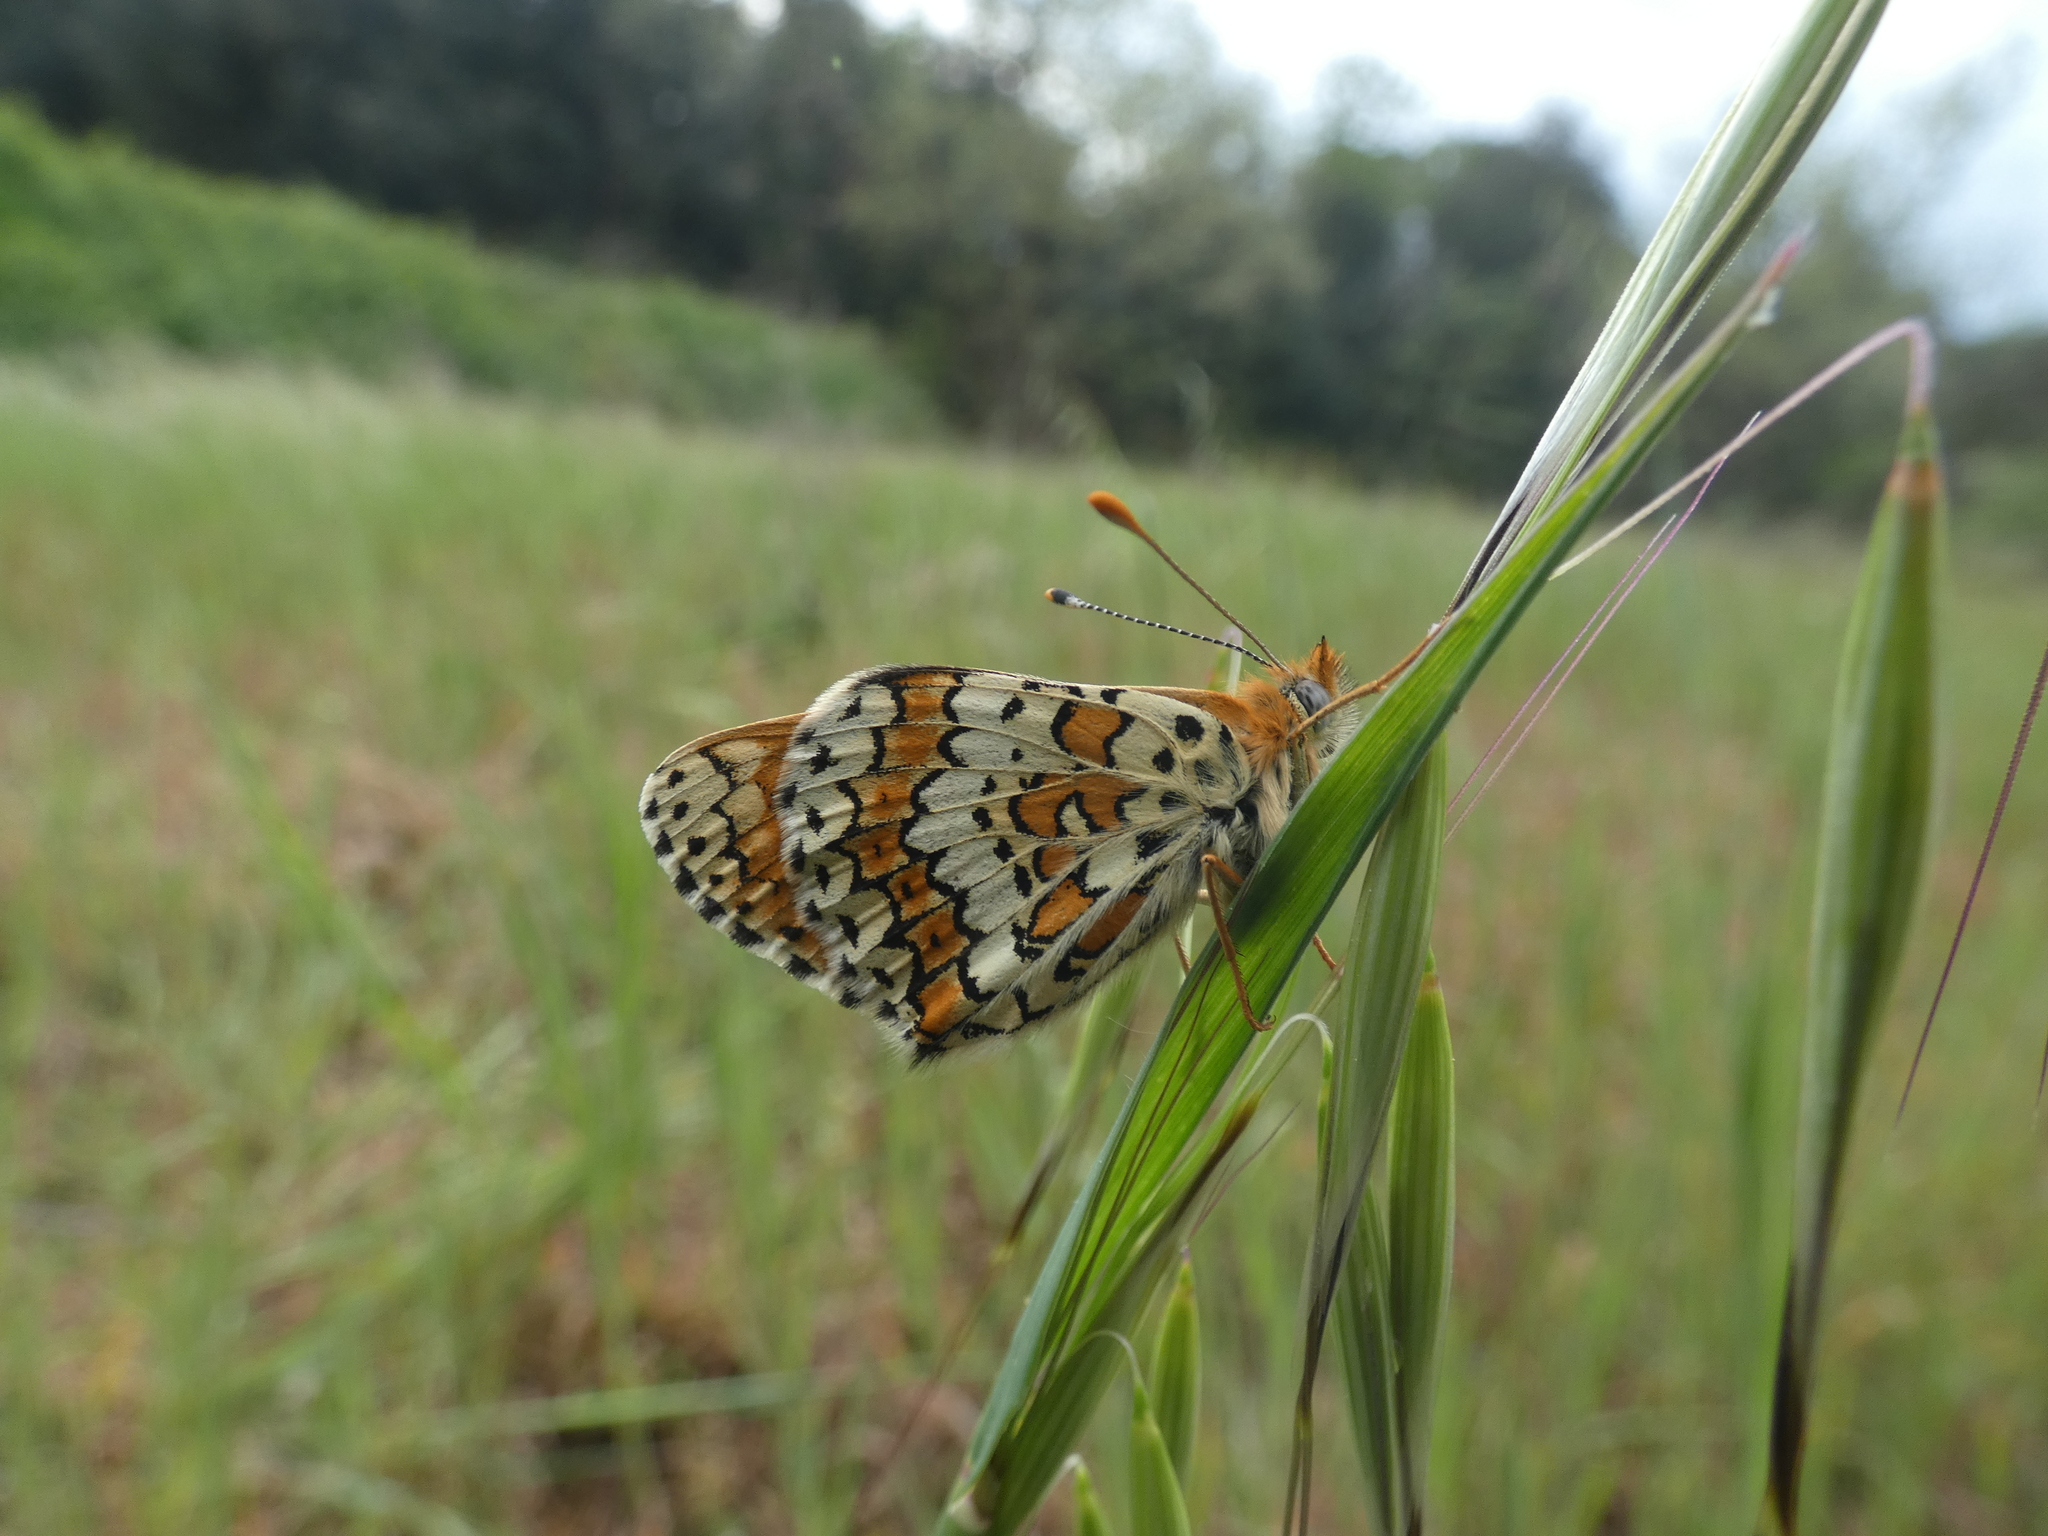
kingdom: Animalia
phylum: Arthropoda
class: Insecta
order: Lepidoptera
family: Nymphalidae
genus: Melitaea
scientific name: Melitaea cinxia
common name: Glanville fritillary
